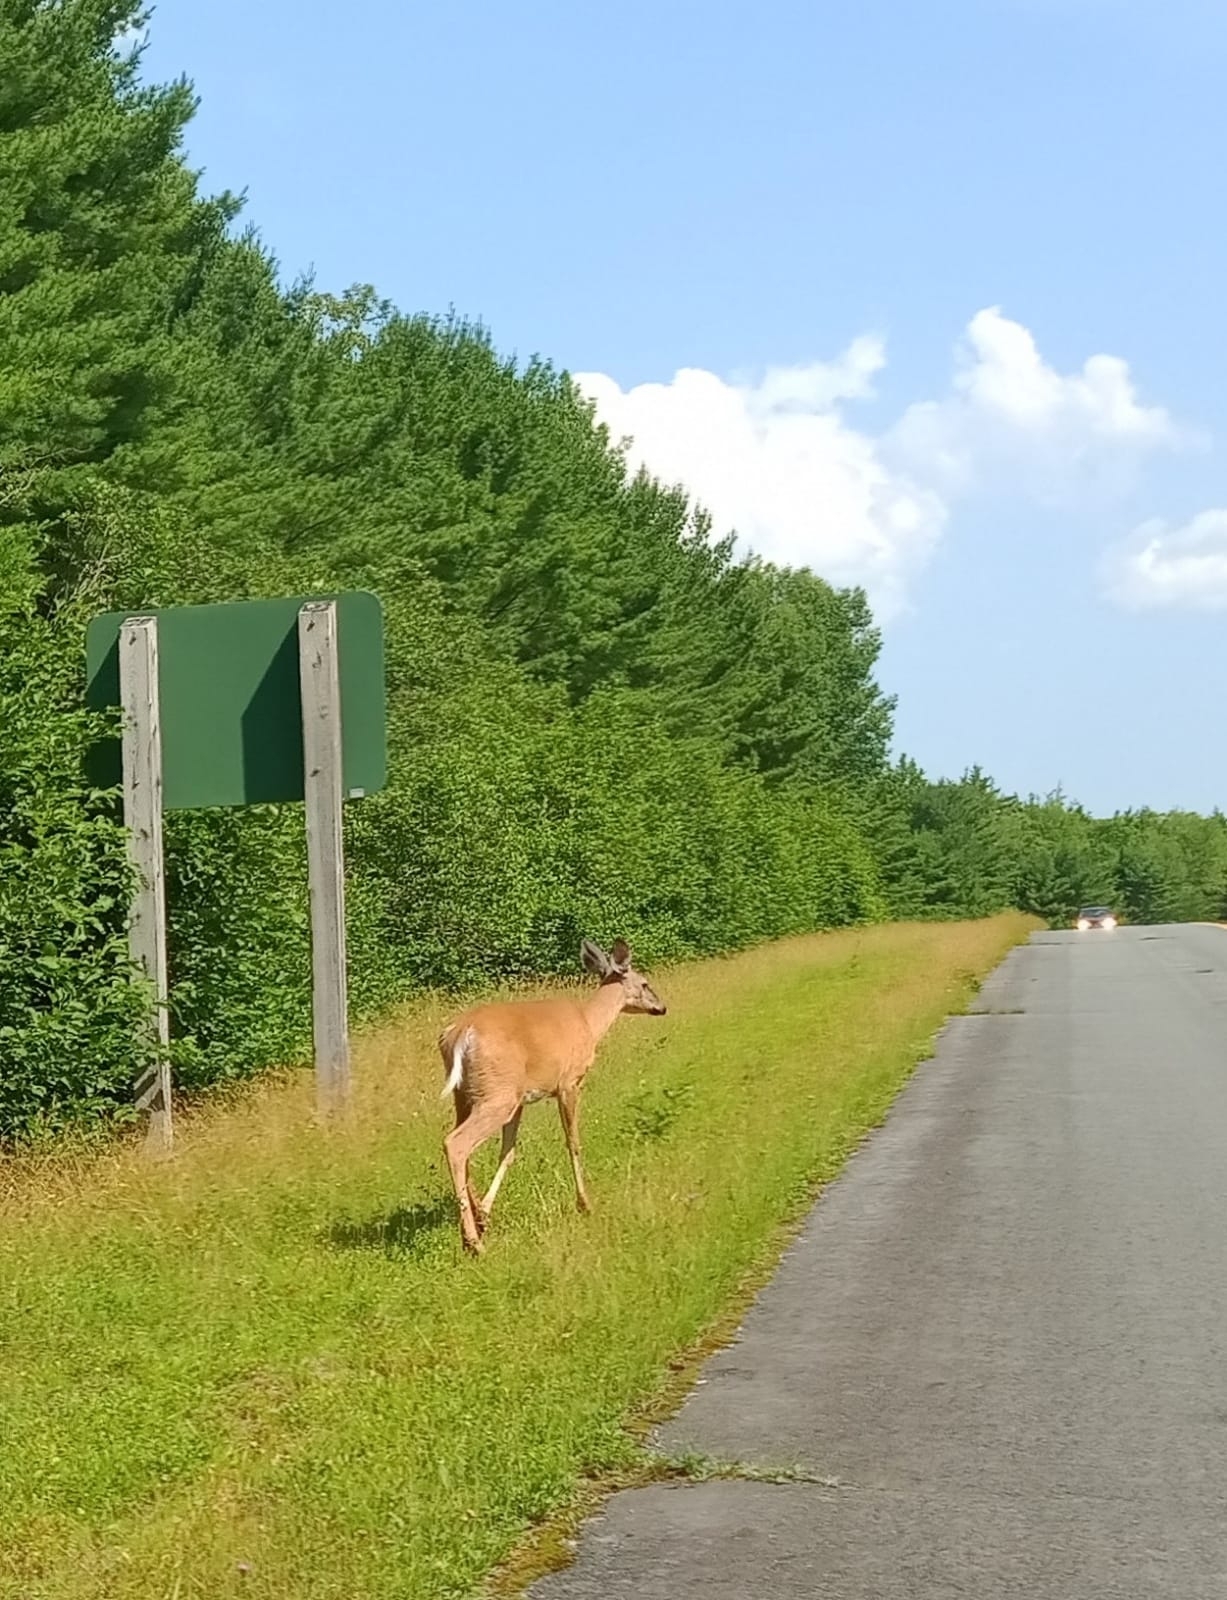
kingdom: Animalia
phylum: Chordata
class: Mammalia
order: Artiodactyla
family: Cervidae
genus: Odocoileus
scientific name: Odocoileus virginianus
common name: White-tailed deer
